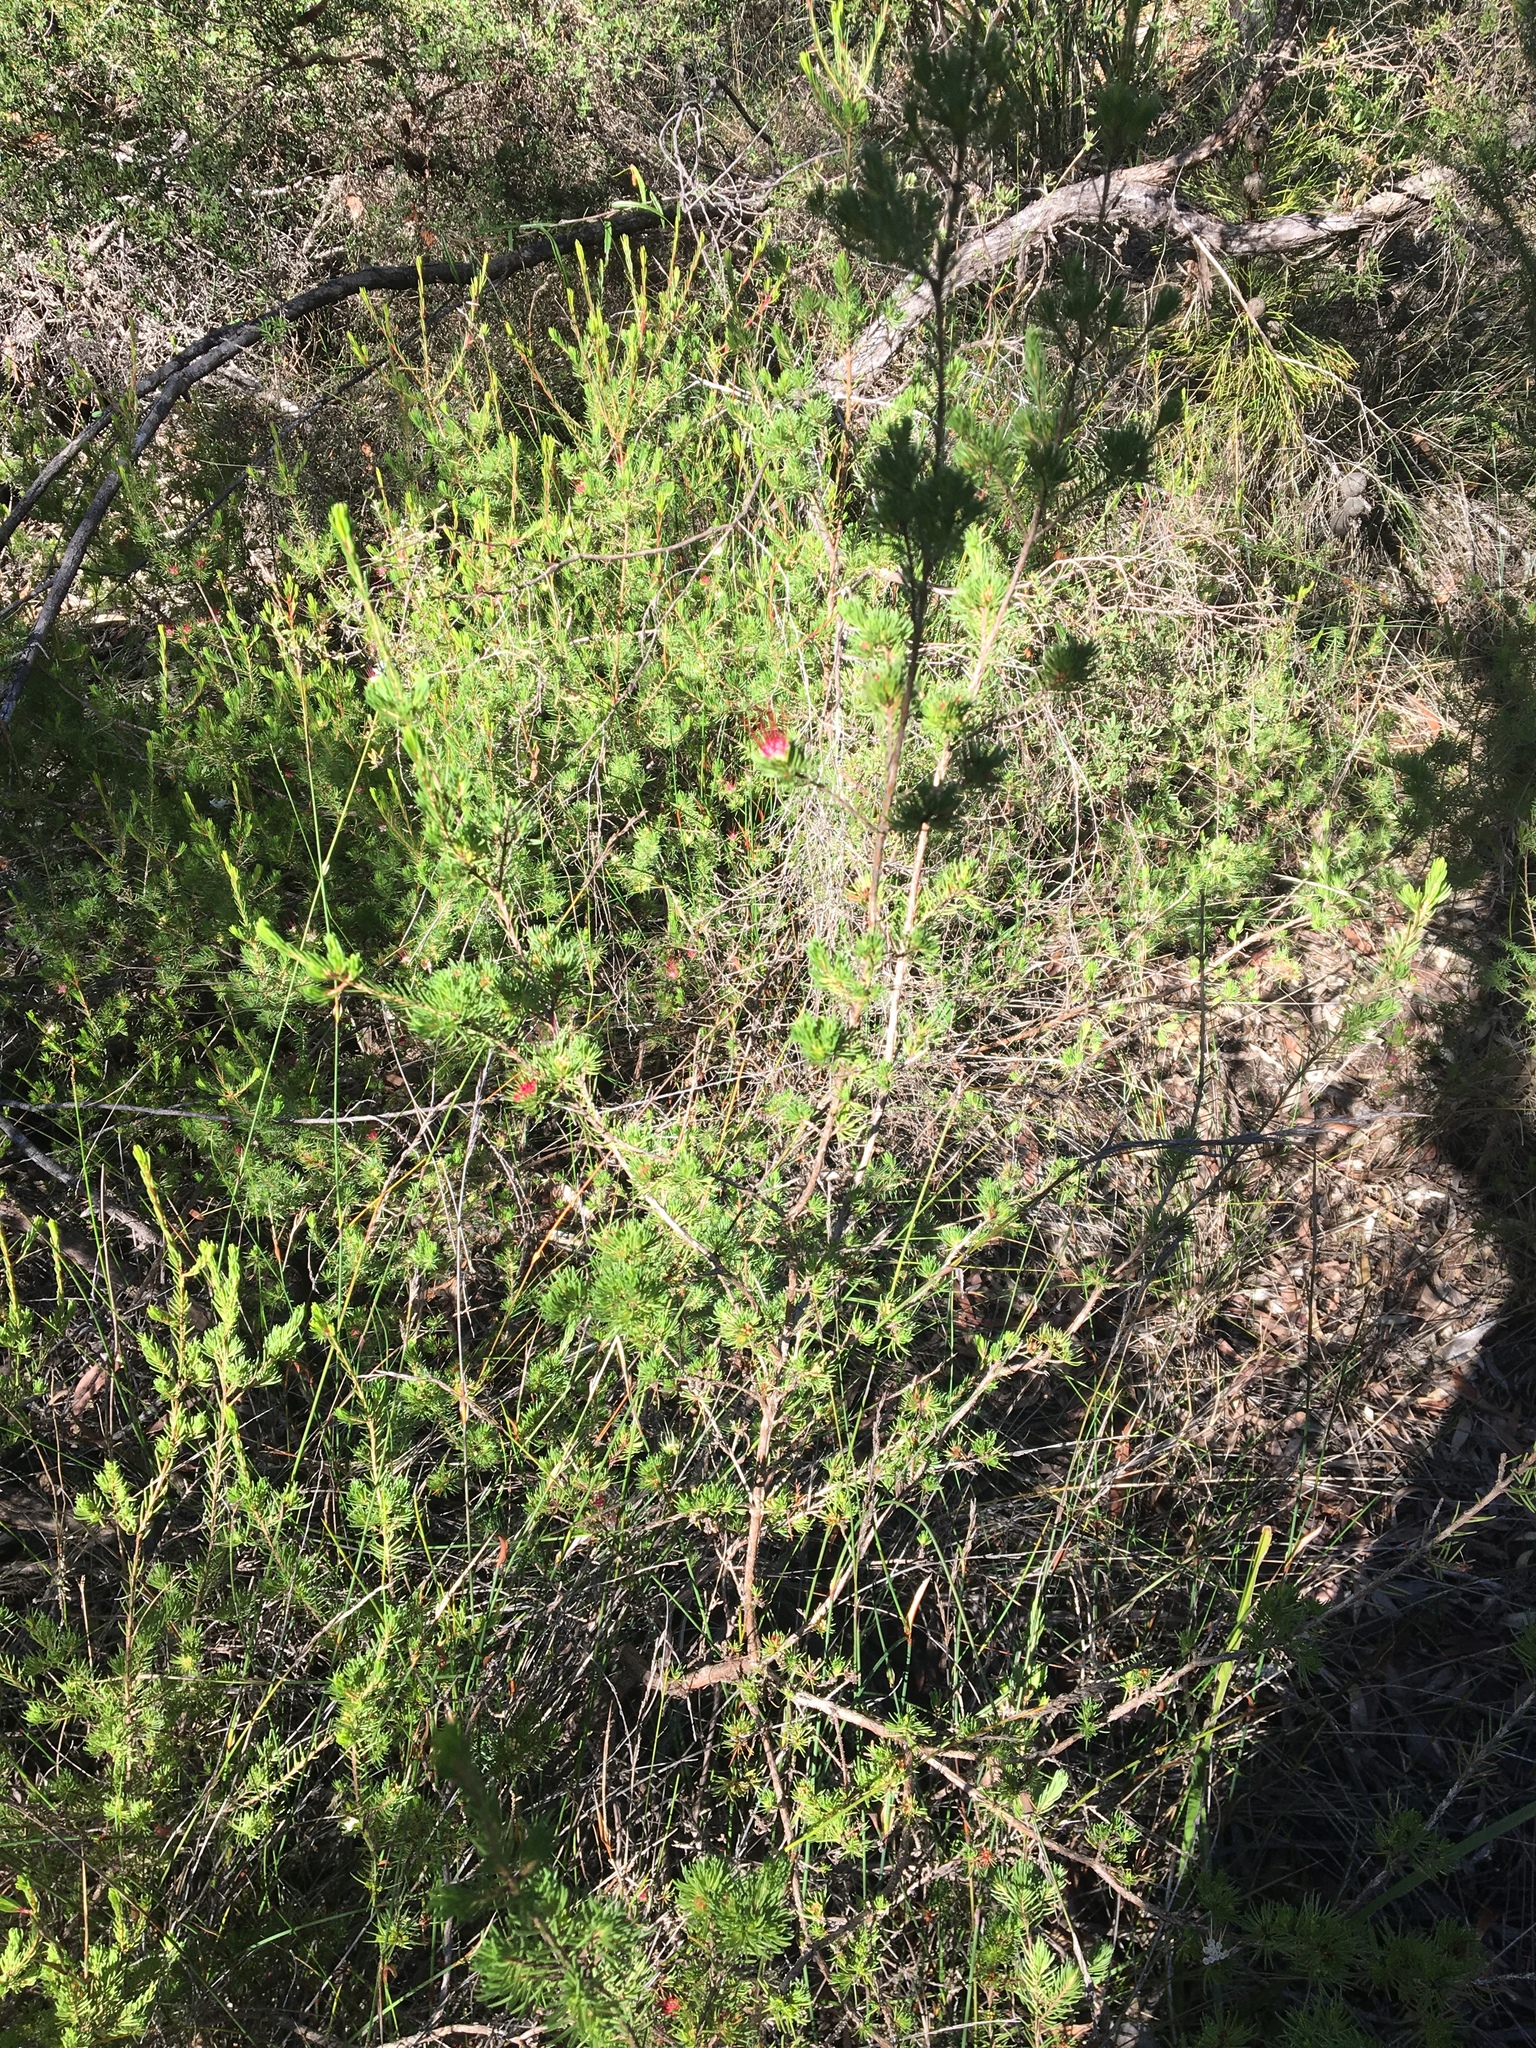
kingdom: Plantae
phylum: Tracheophyta
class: Magnoliopsida
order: Myrtales
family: Myrtaceae
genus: Darwinia
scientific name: Darwinia fascicularis
